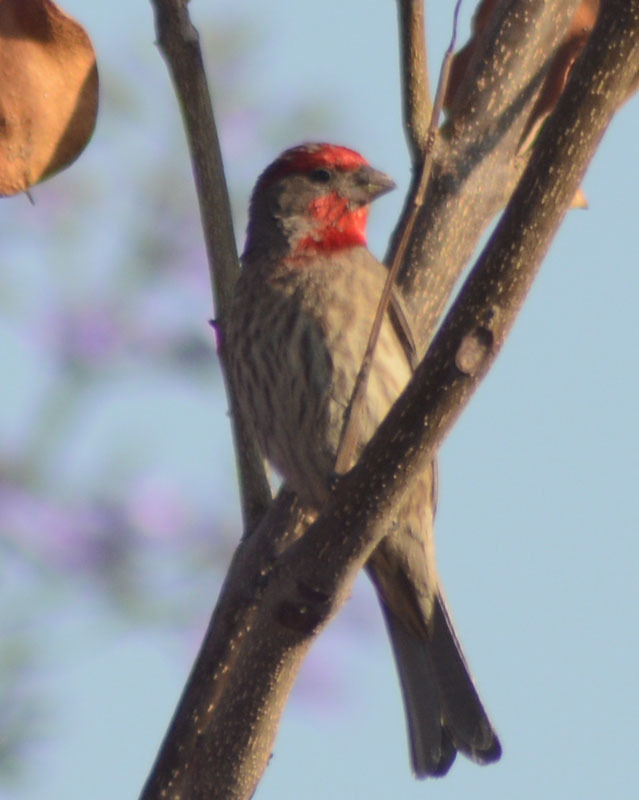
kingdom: Animalia
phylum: Chordata
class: Aves
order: Passeriformes
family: Fringillidae
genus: Haemorhous
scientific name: Haemorhous mexicanus
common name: House finch
